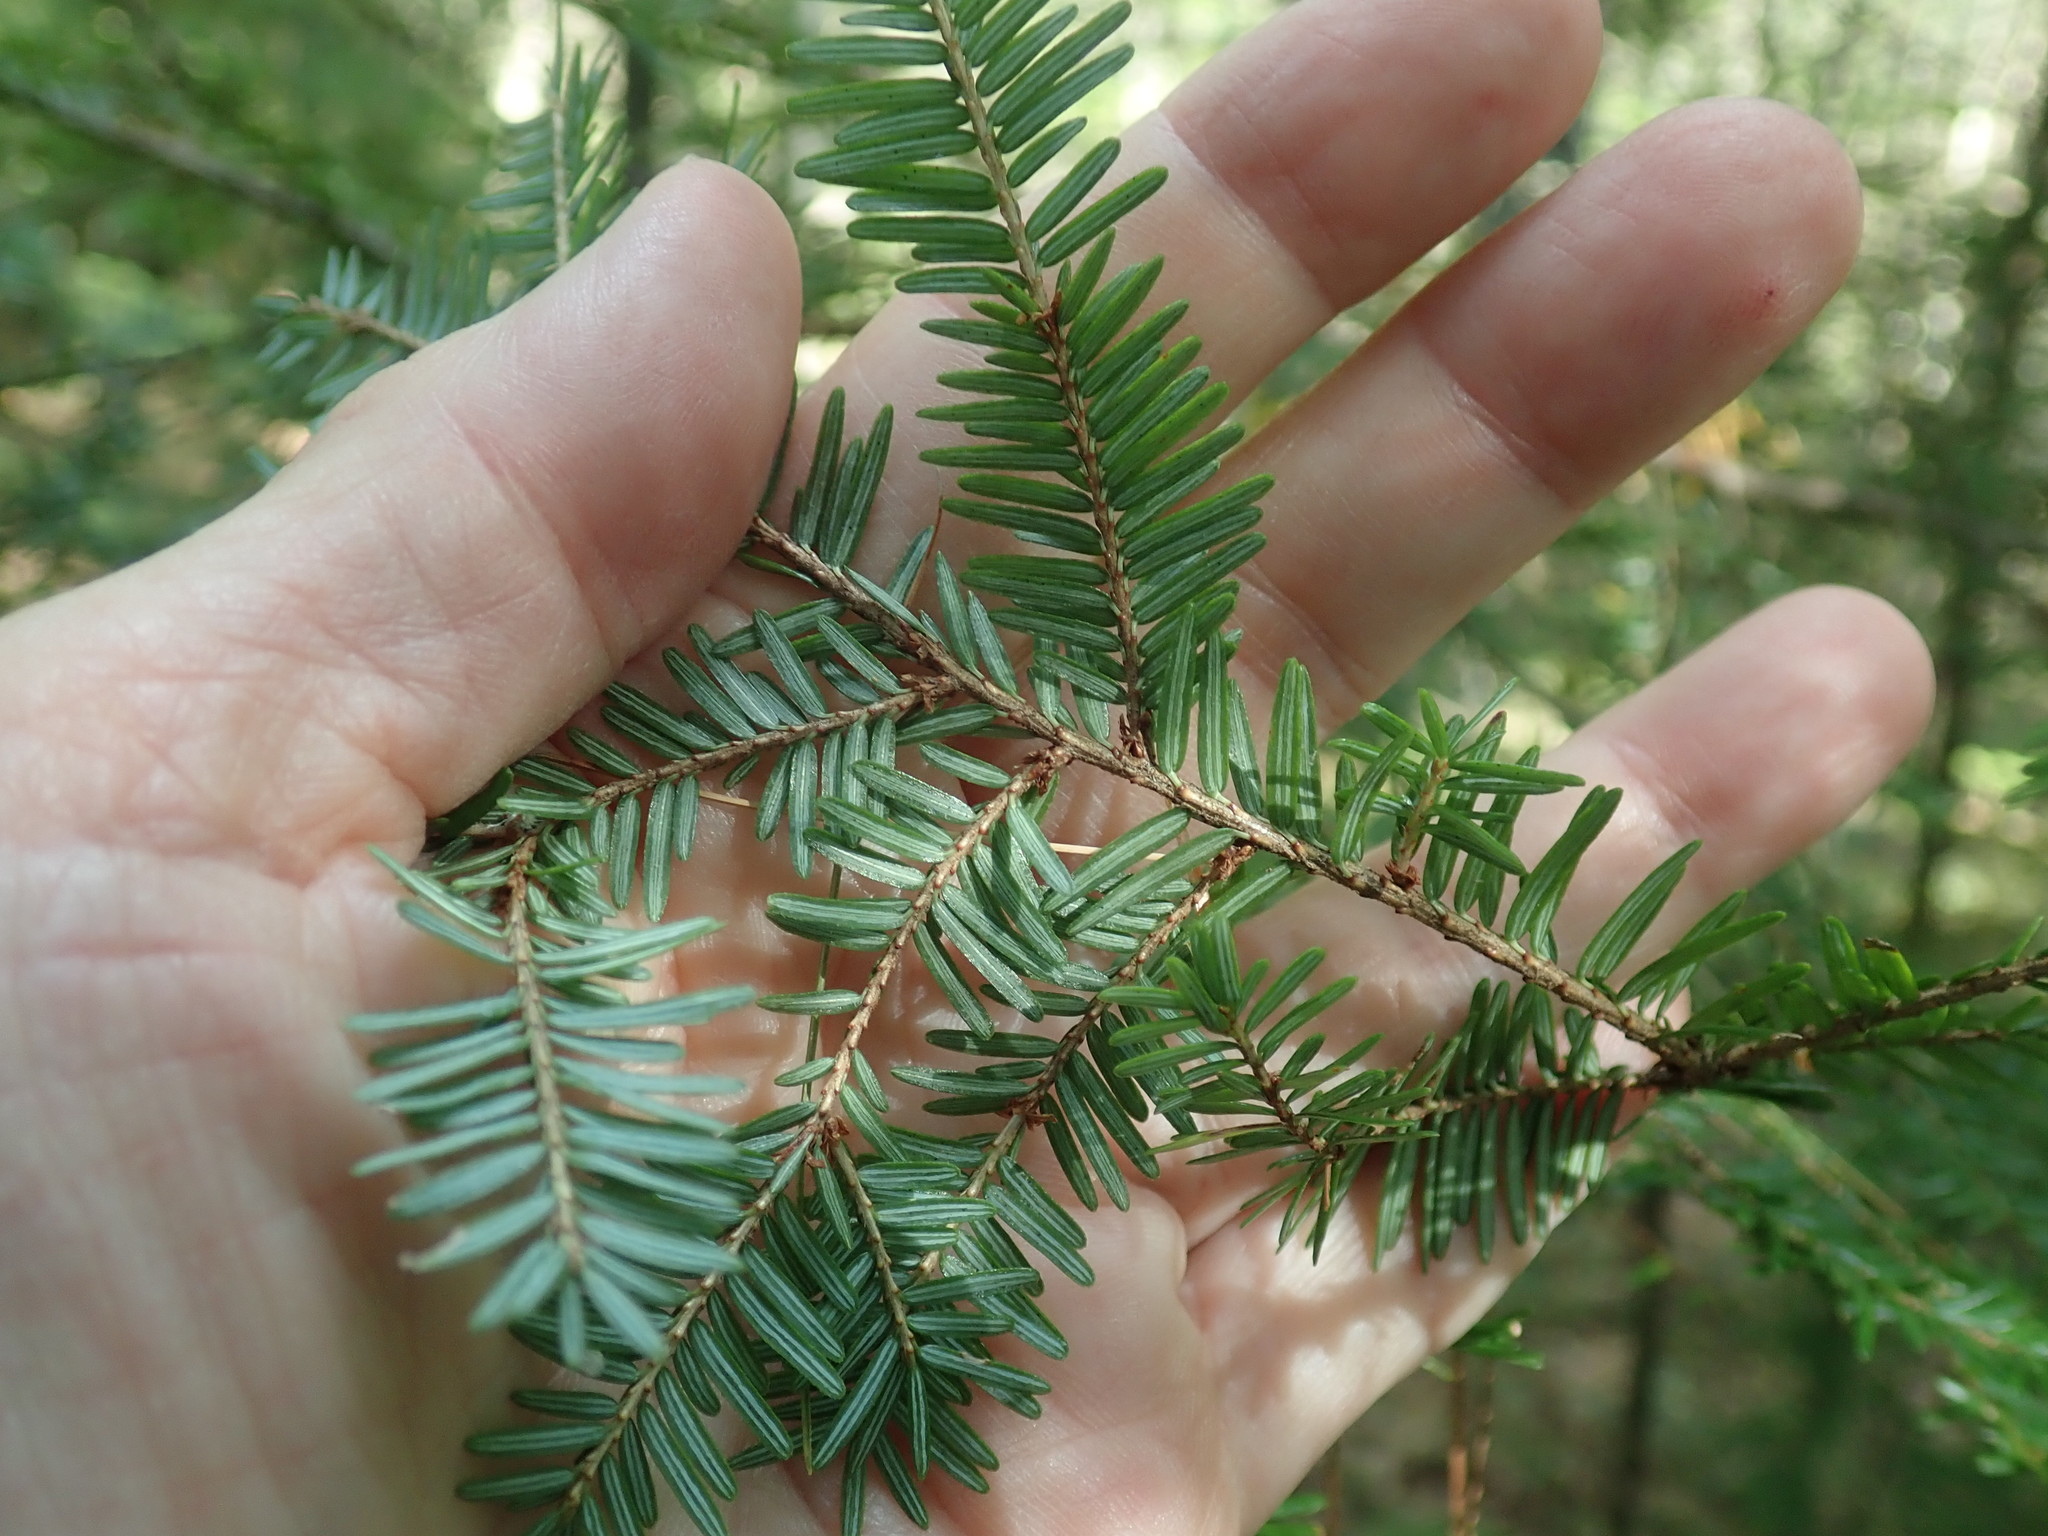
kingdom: Plantae
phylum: Tracheophyta
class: Pinopsida
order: Pinales
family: Pinaceae
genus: Tsuga
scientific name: Tsuga canadensis
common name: Eastern hemlock
